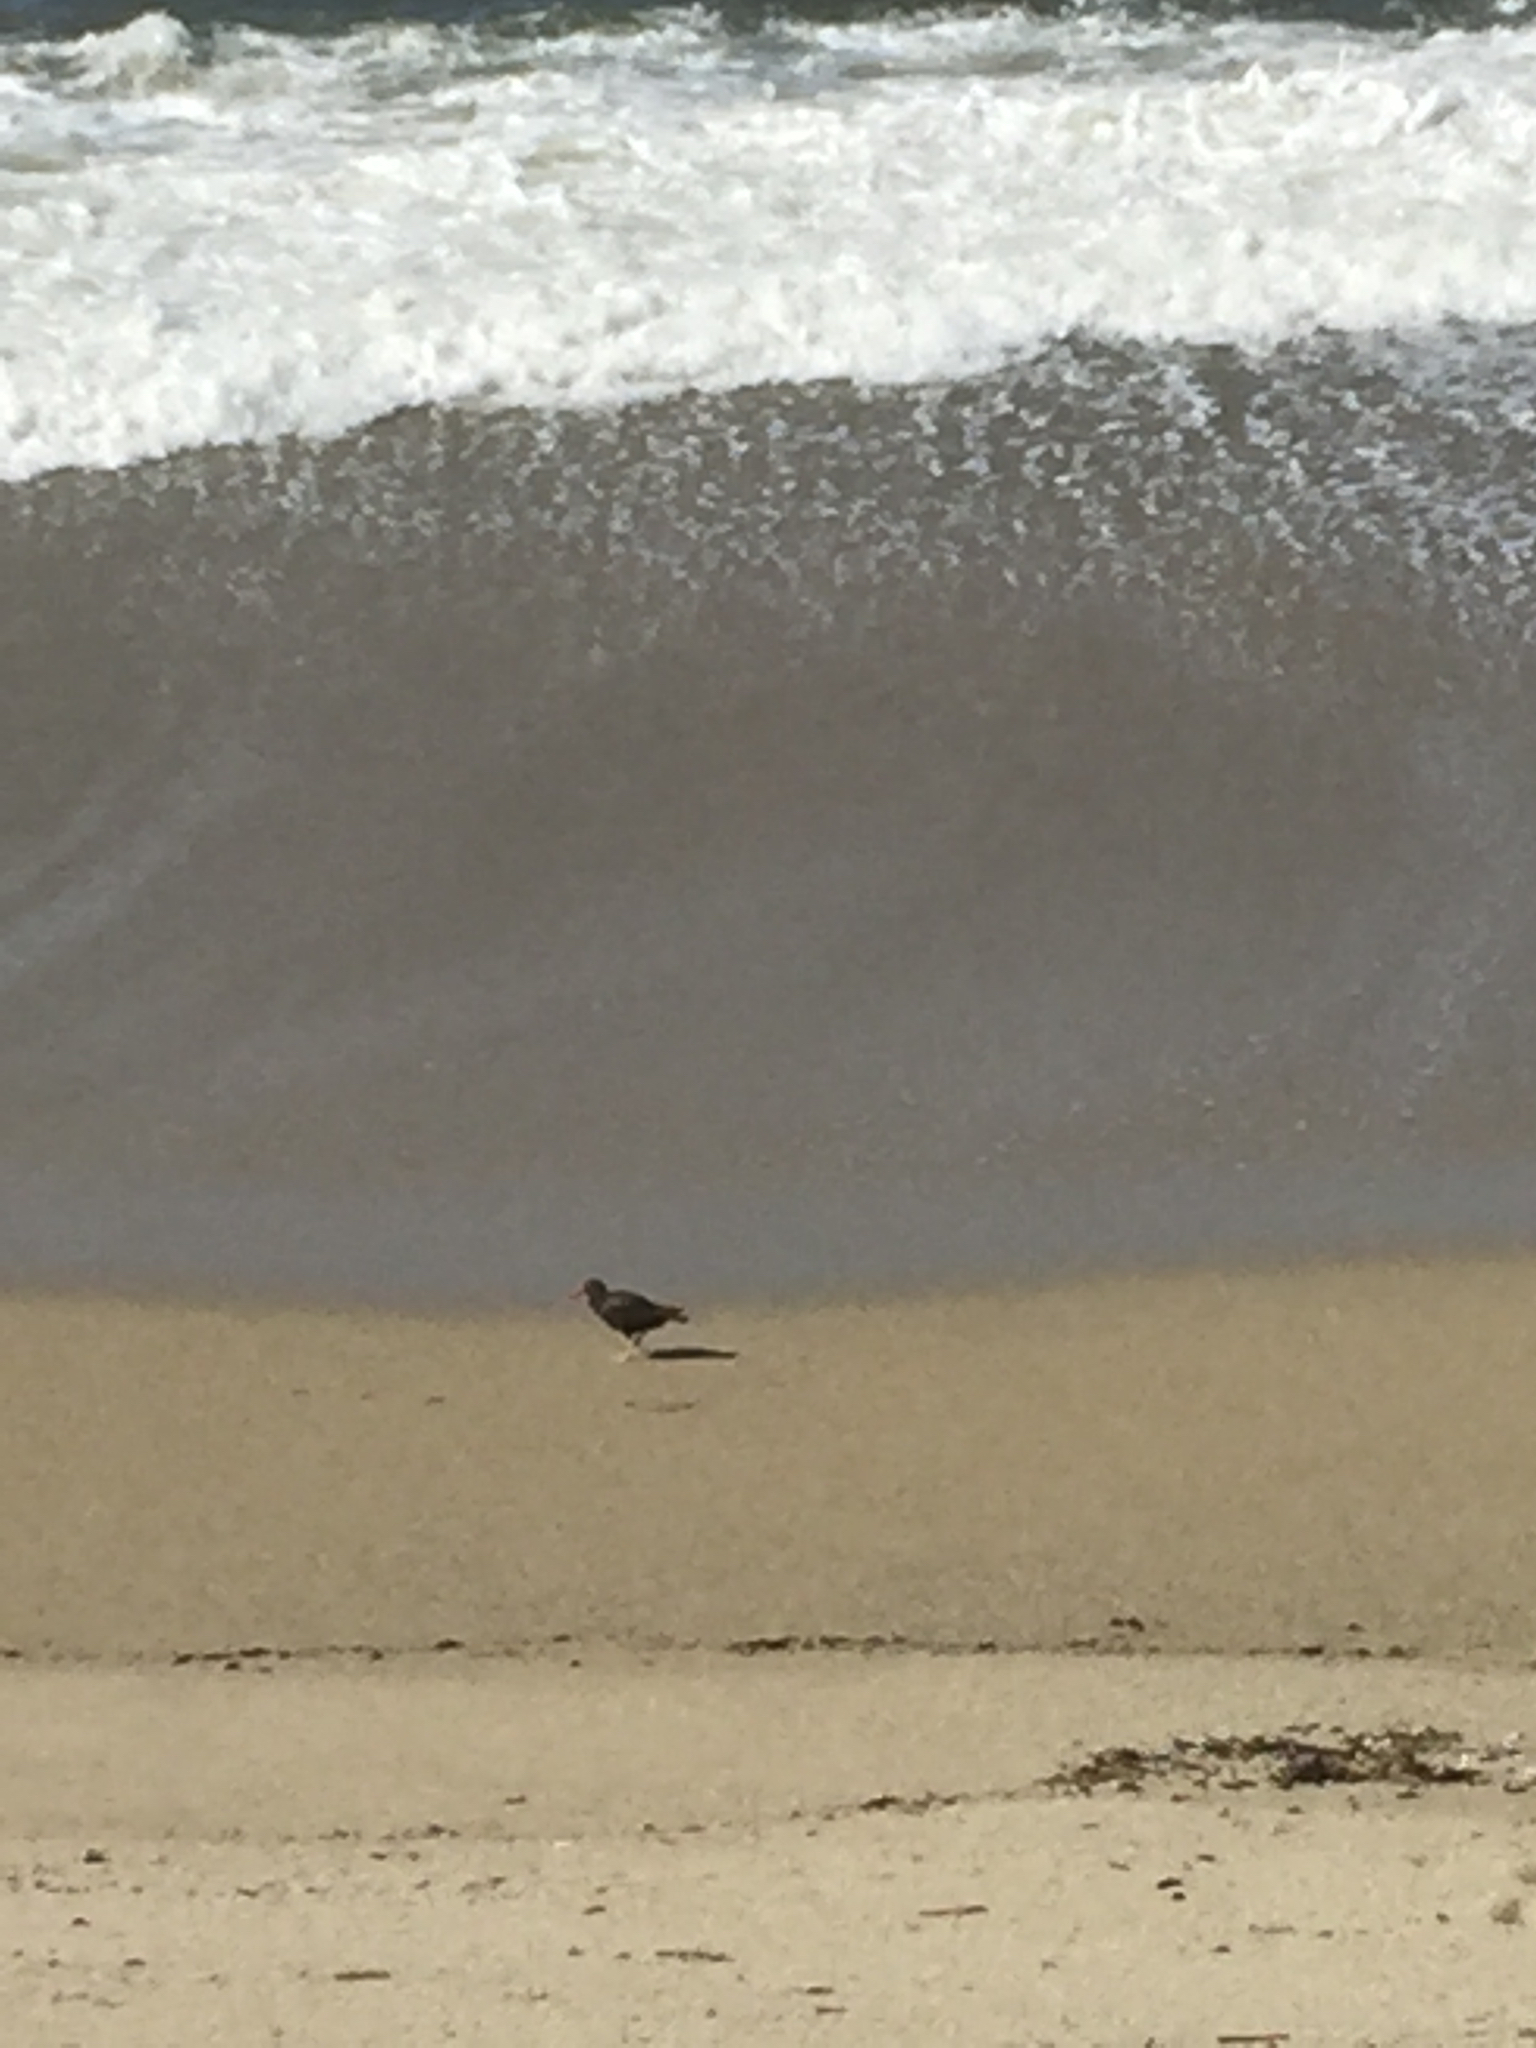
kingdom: Animalia
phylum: Chordata
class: Aves
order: Charadriiformes
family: Haematopodidae
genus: Haematopus
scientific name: Haematopus bachmani
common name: Black oystercatcher
